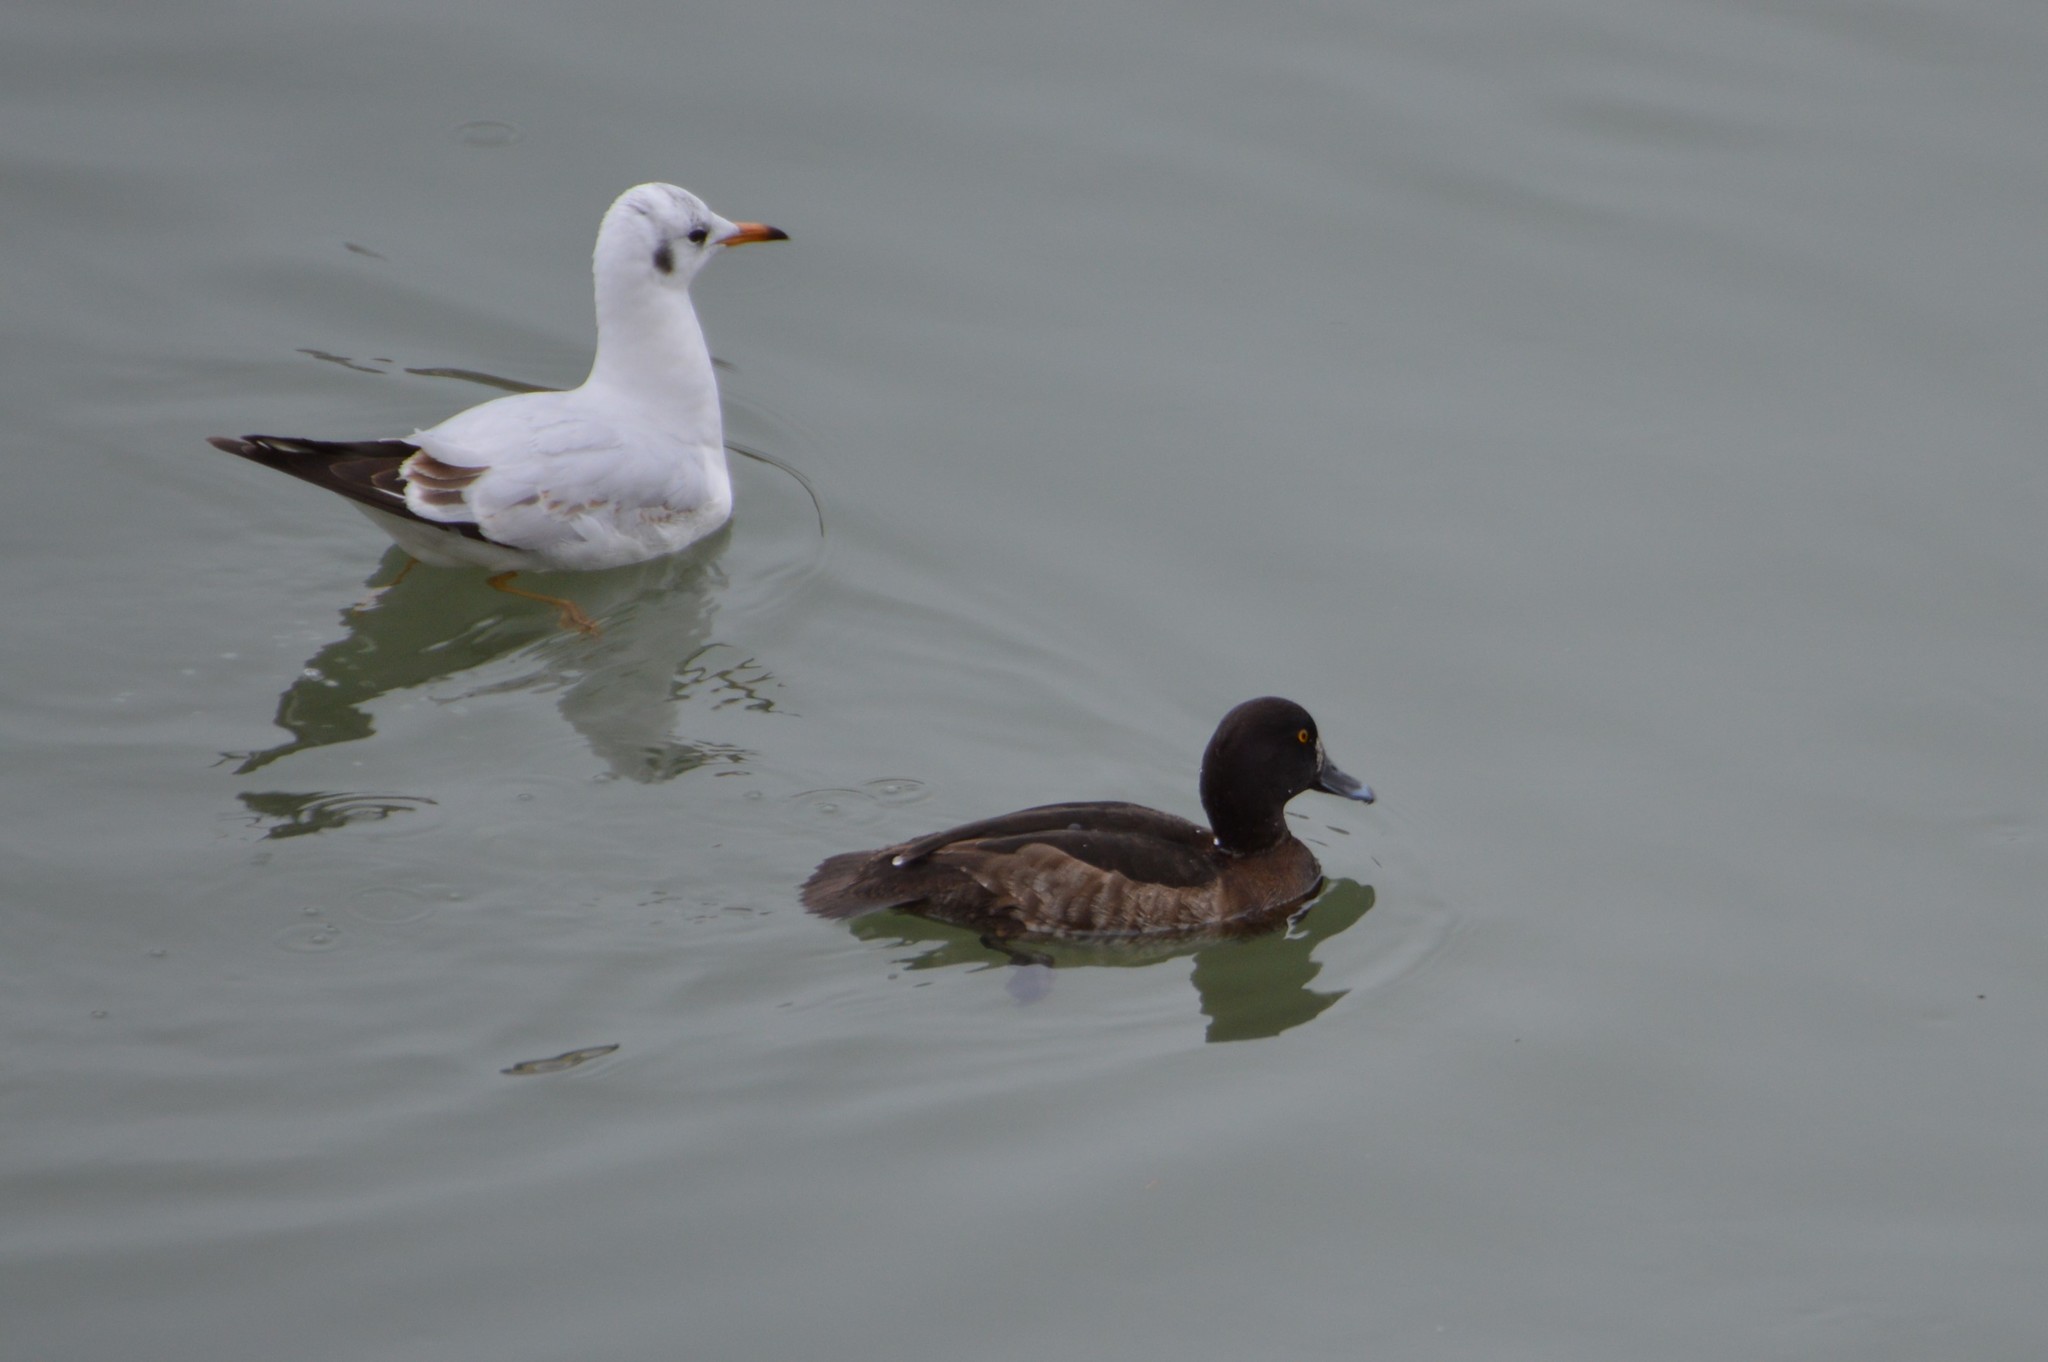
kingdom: Animalia
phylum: Chordata
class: Aves
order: Anseriformes
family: Anatidae
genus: Aythya
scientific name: Aythya fuligula
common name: Tufted duck
